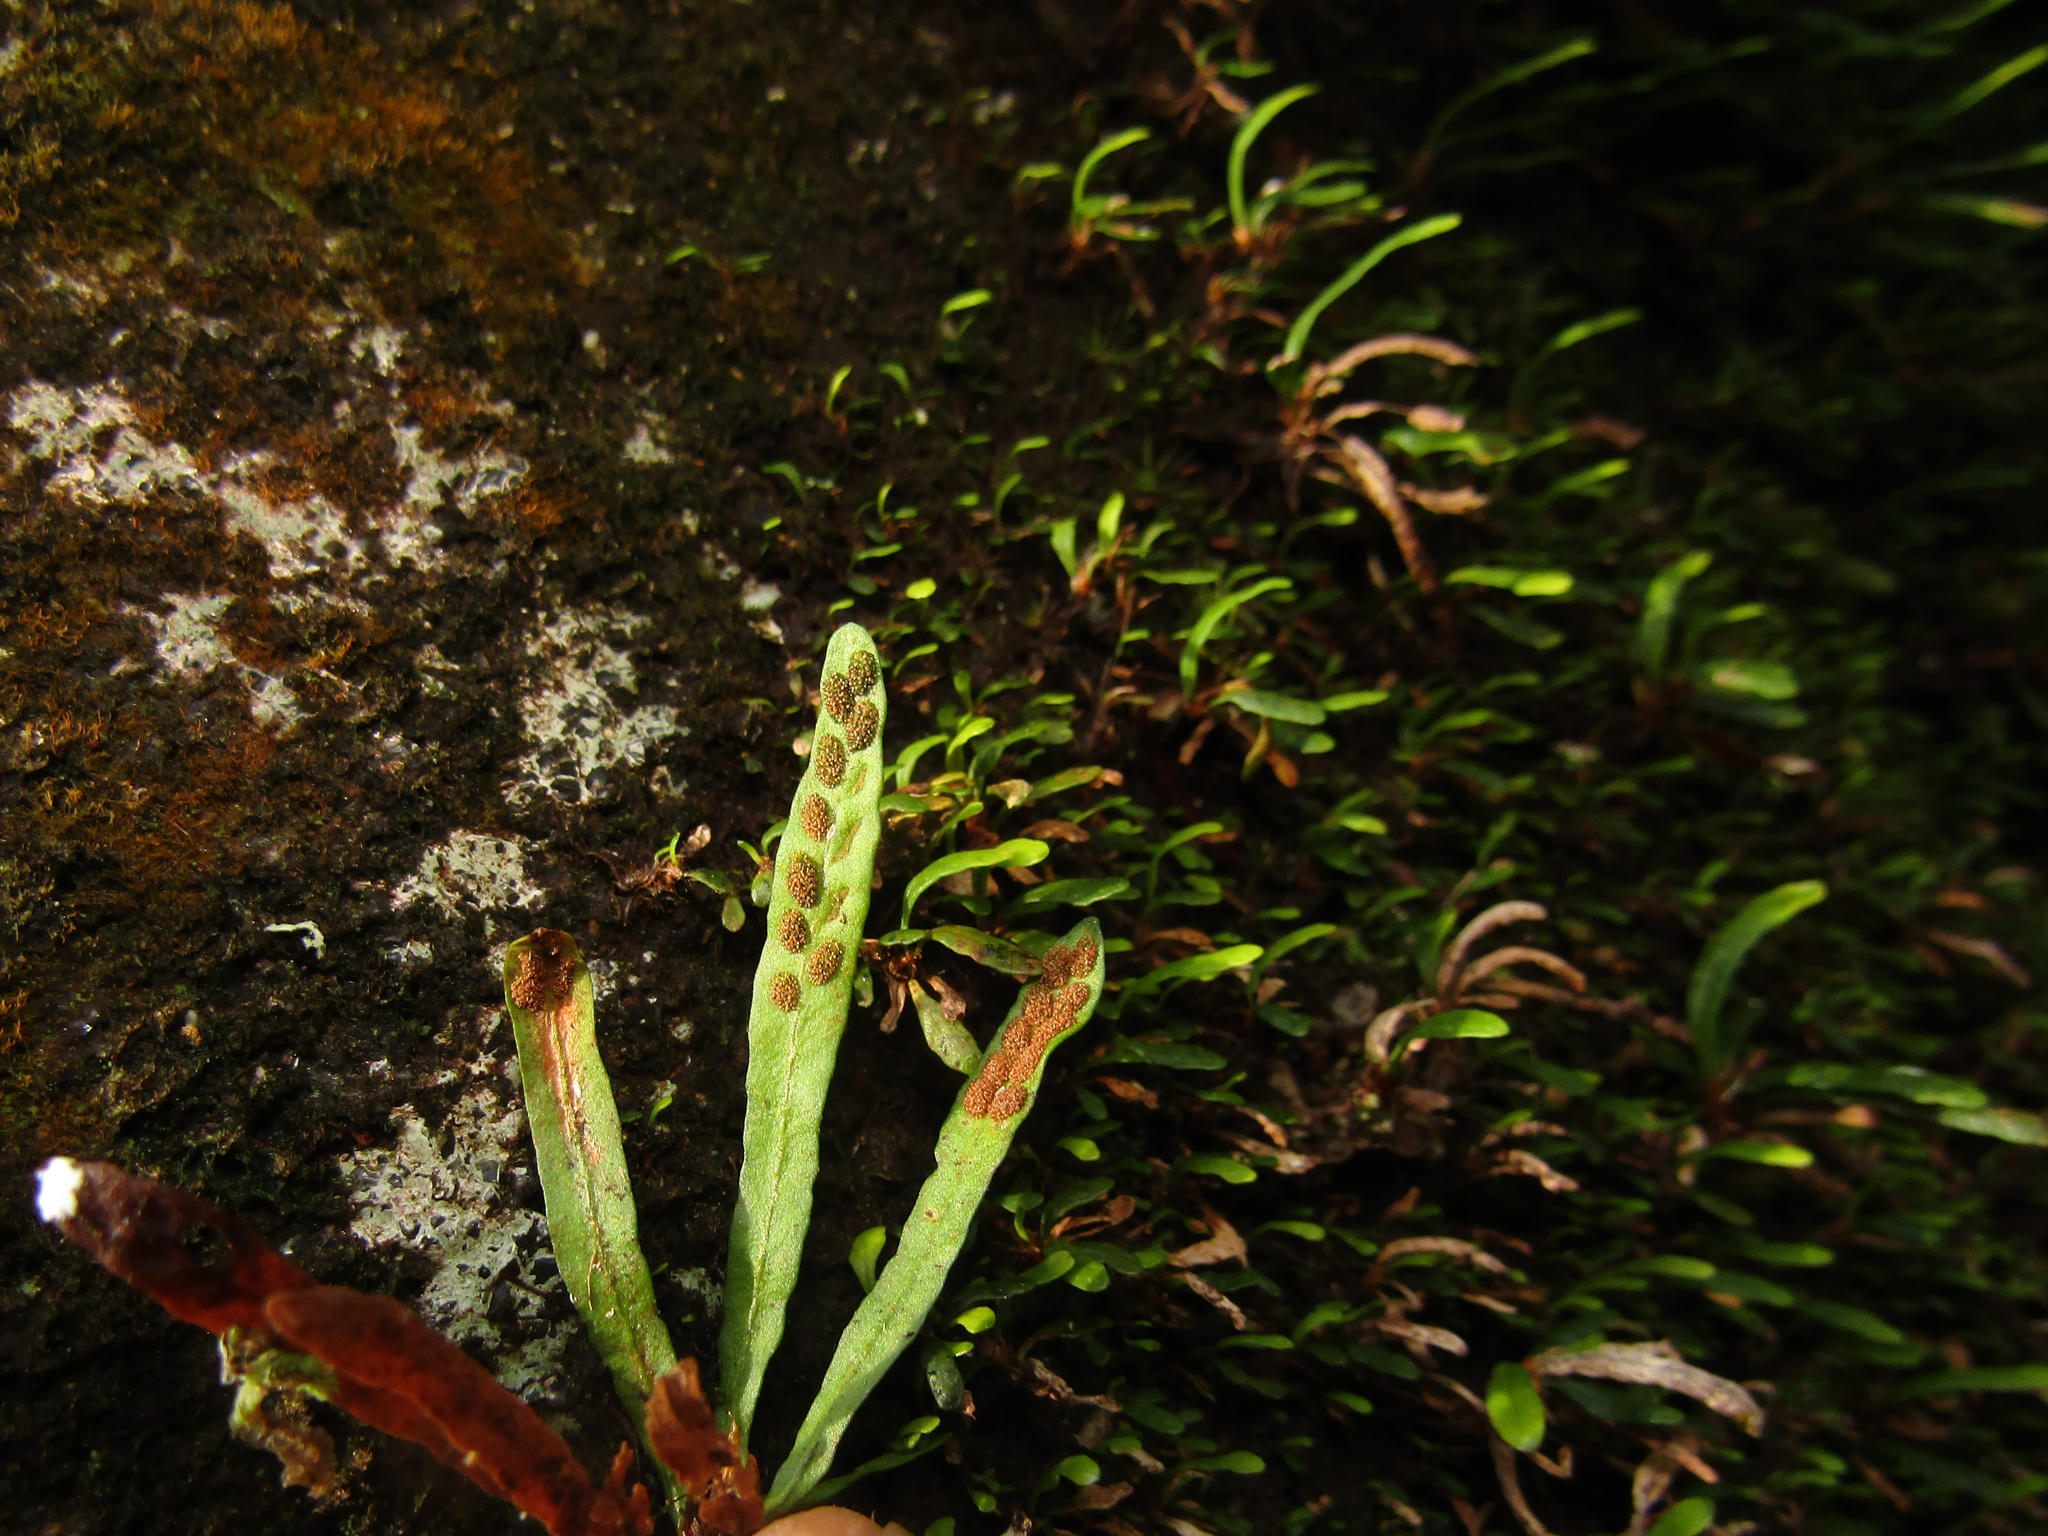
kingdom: Plantae
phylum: Tracheophyta
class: Polypodiopsida
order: Polypodiales
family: Polypodiaceae
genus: Grammitis
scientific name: Grammitis stenophylla
